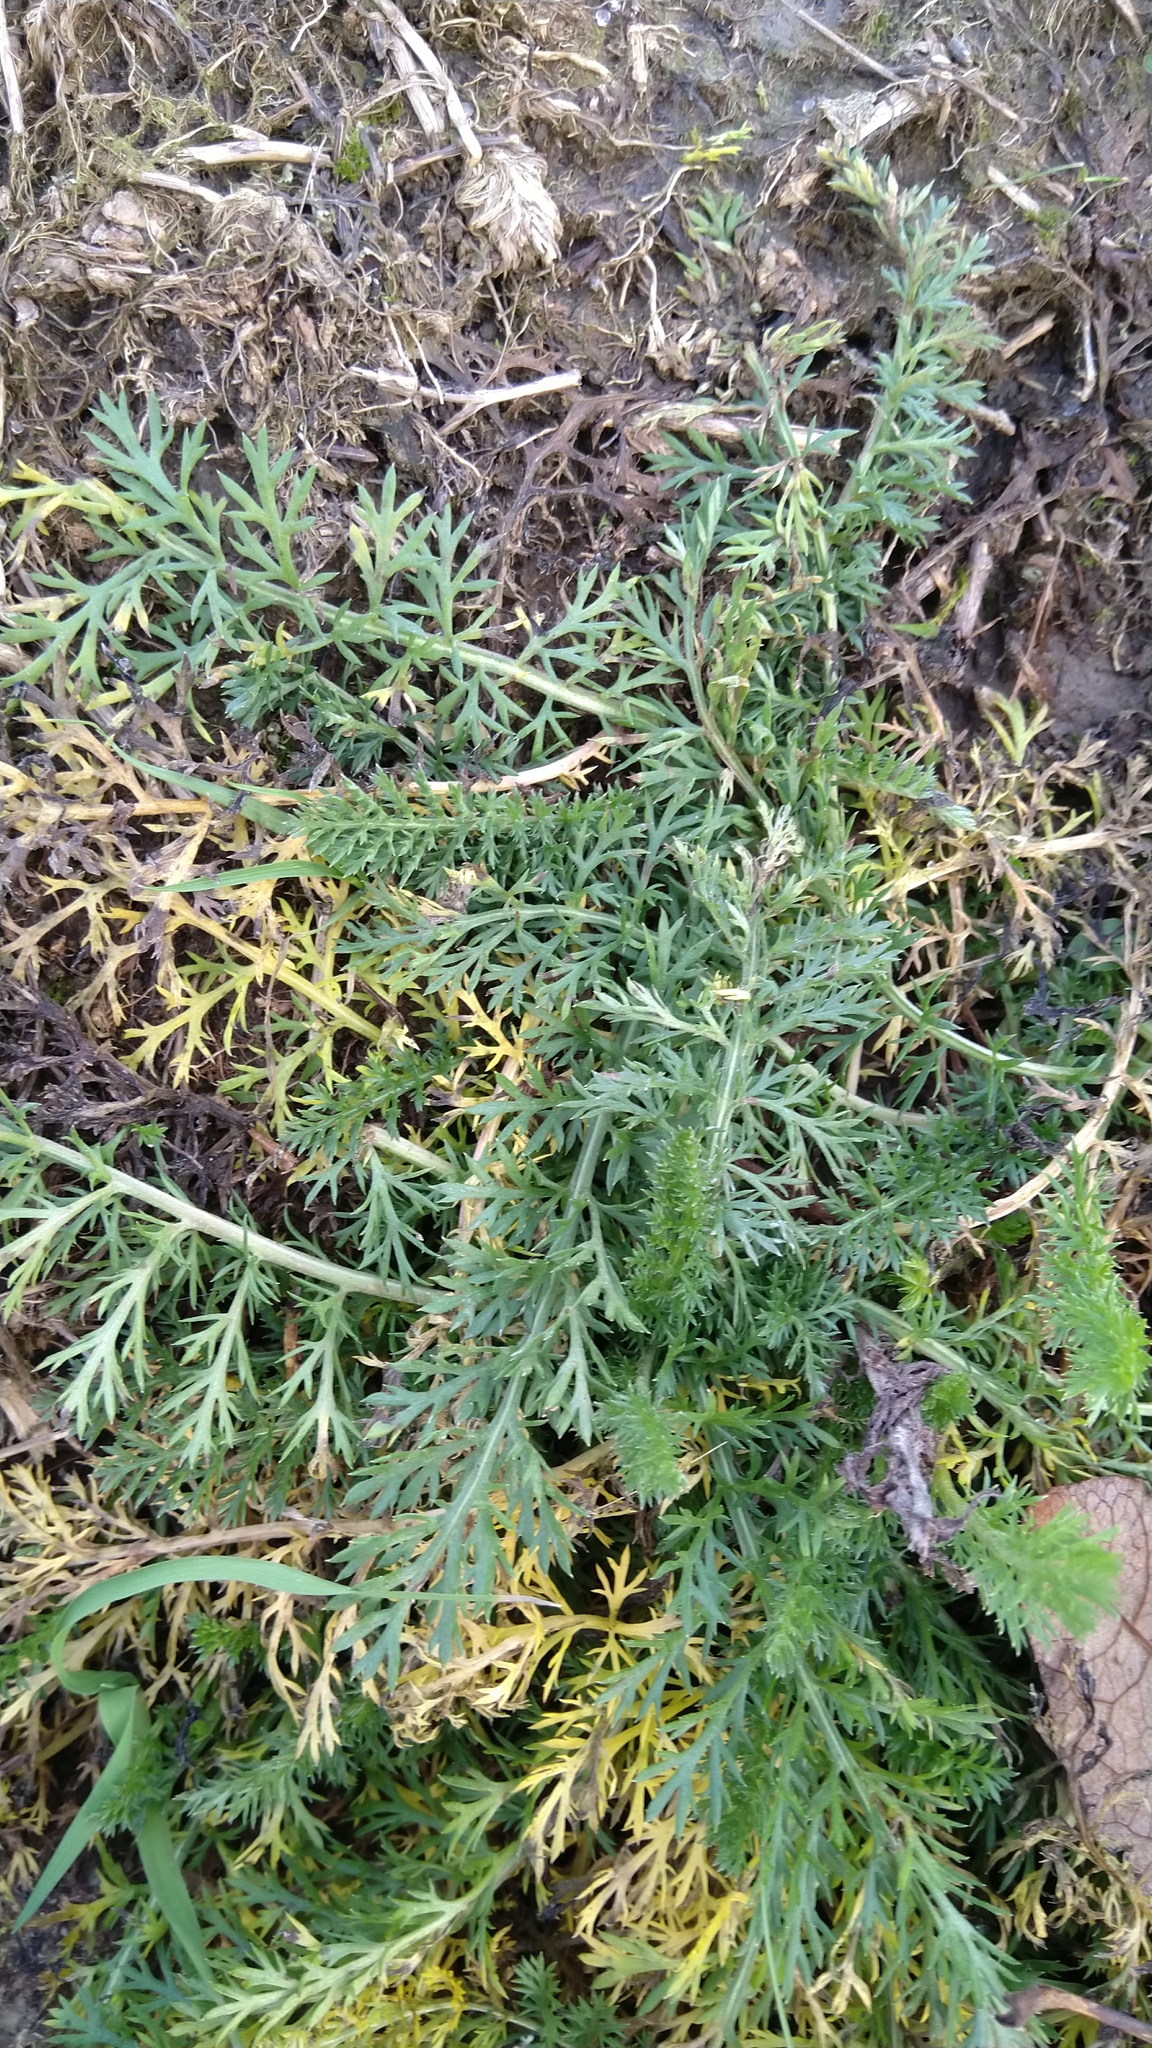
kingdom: Plantae
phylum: Tracheophyta
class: Magnoliopsida
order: Asterales
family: Asteraceae
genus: Achillea
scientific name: Achillea millefolium
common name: Yarrow
